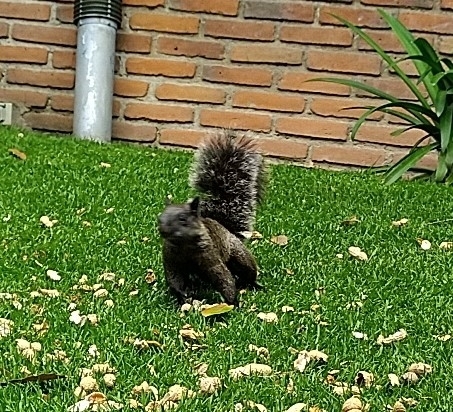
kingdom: Animalia
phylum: Chordata
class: Mammalia
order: Rodentia
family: Sciuridae
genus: Sciurus
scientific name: Sciurus aureogaster
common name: Red-bellied squirrel
